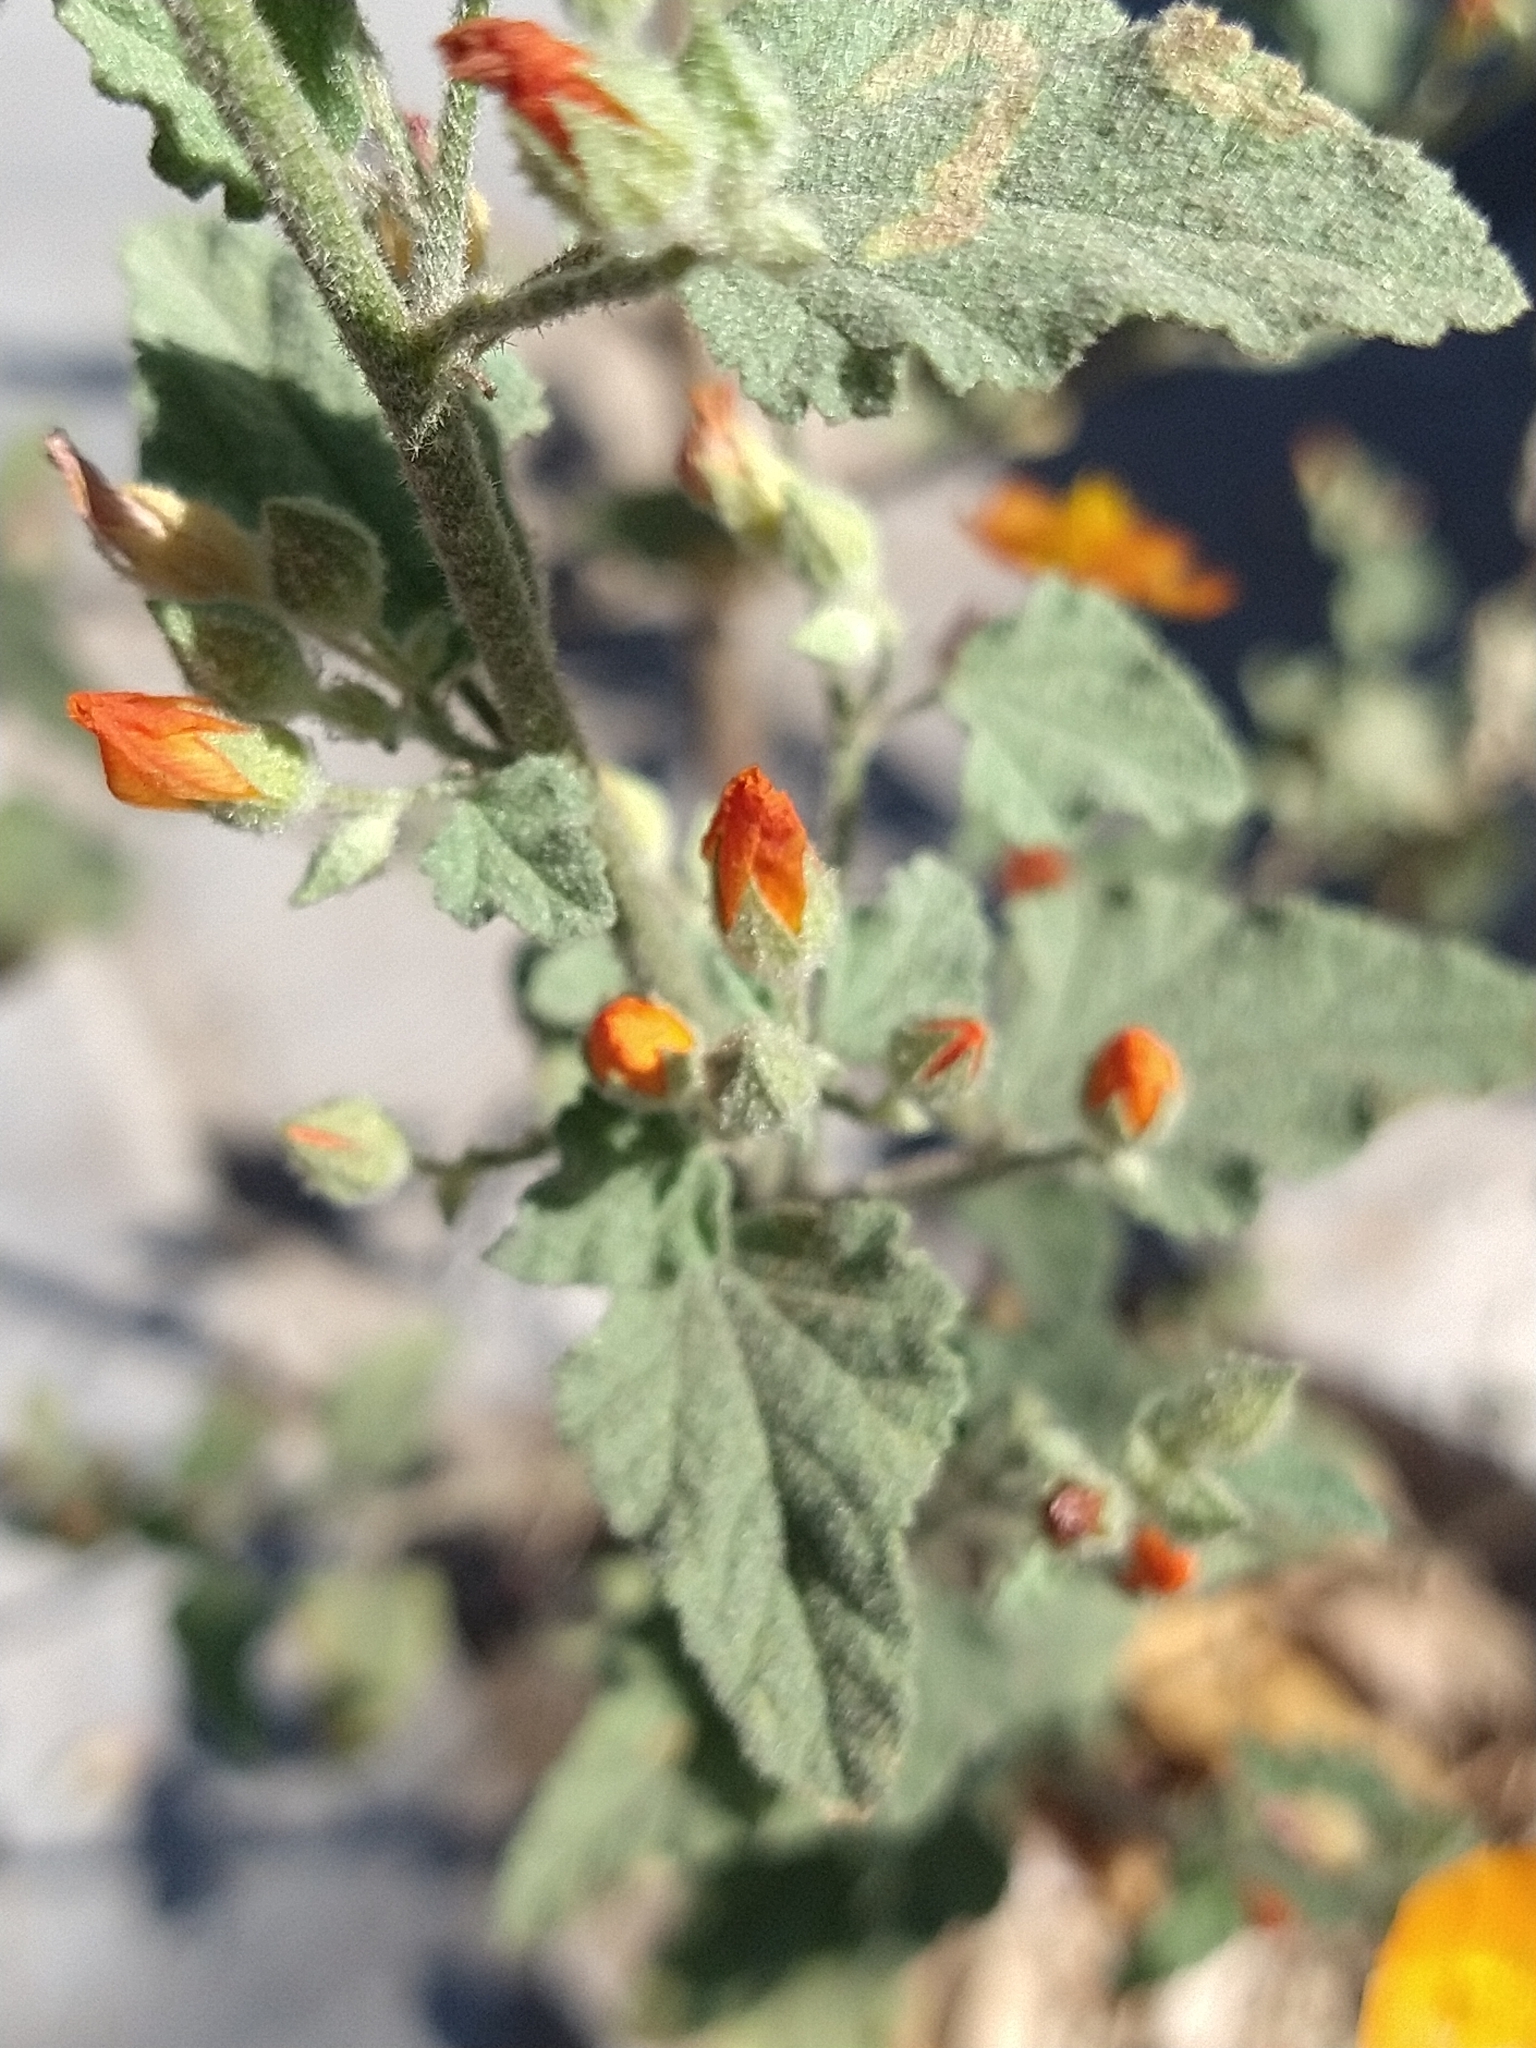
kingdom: Plantae
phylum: Tracheophyta
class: Magnoliopsida
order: Malvales
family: Malvaceae
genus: Sphaeralcea
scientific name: Sphaeralcea coulteri
